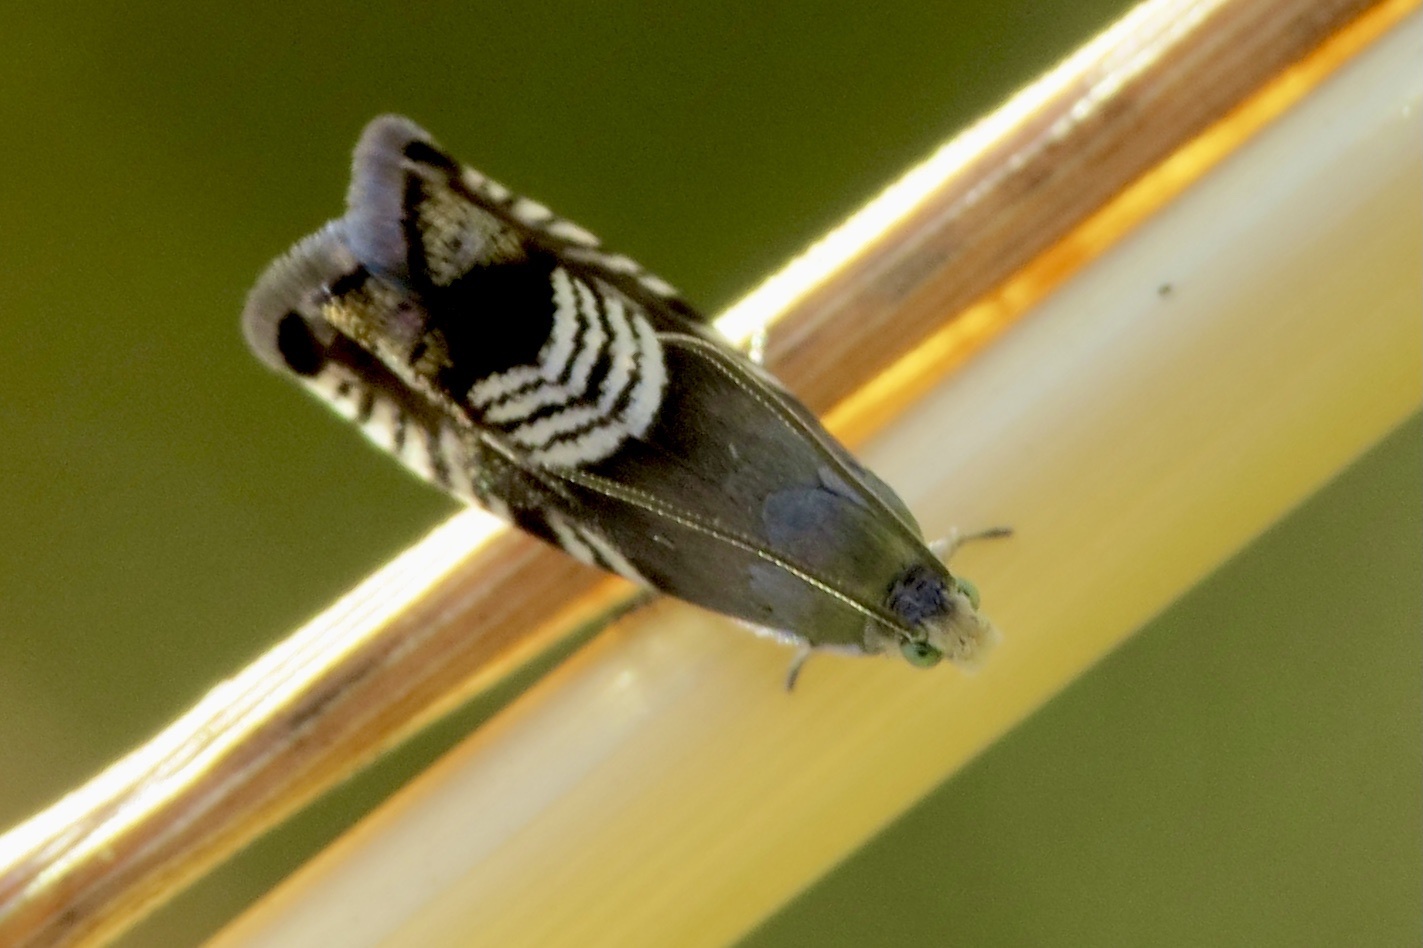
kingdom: Animalia
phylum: Arthropoda
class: Insecta
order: Lepidoptera
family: Tortricidae
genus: Grapholita
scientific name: Grapholita compositella
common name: Triple-stripe piercer
